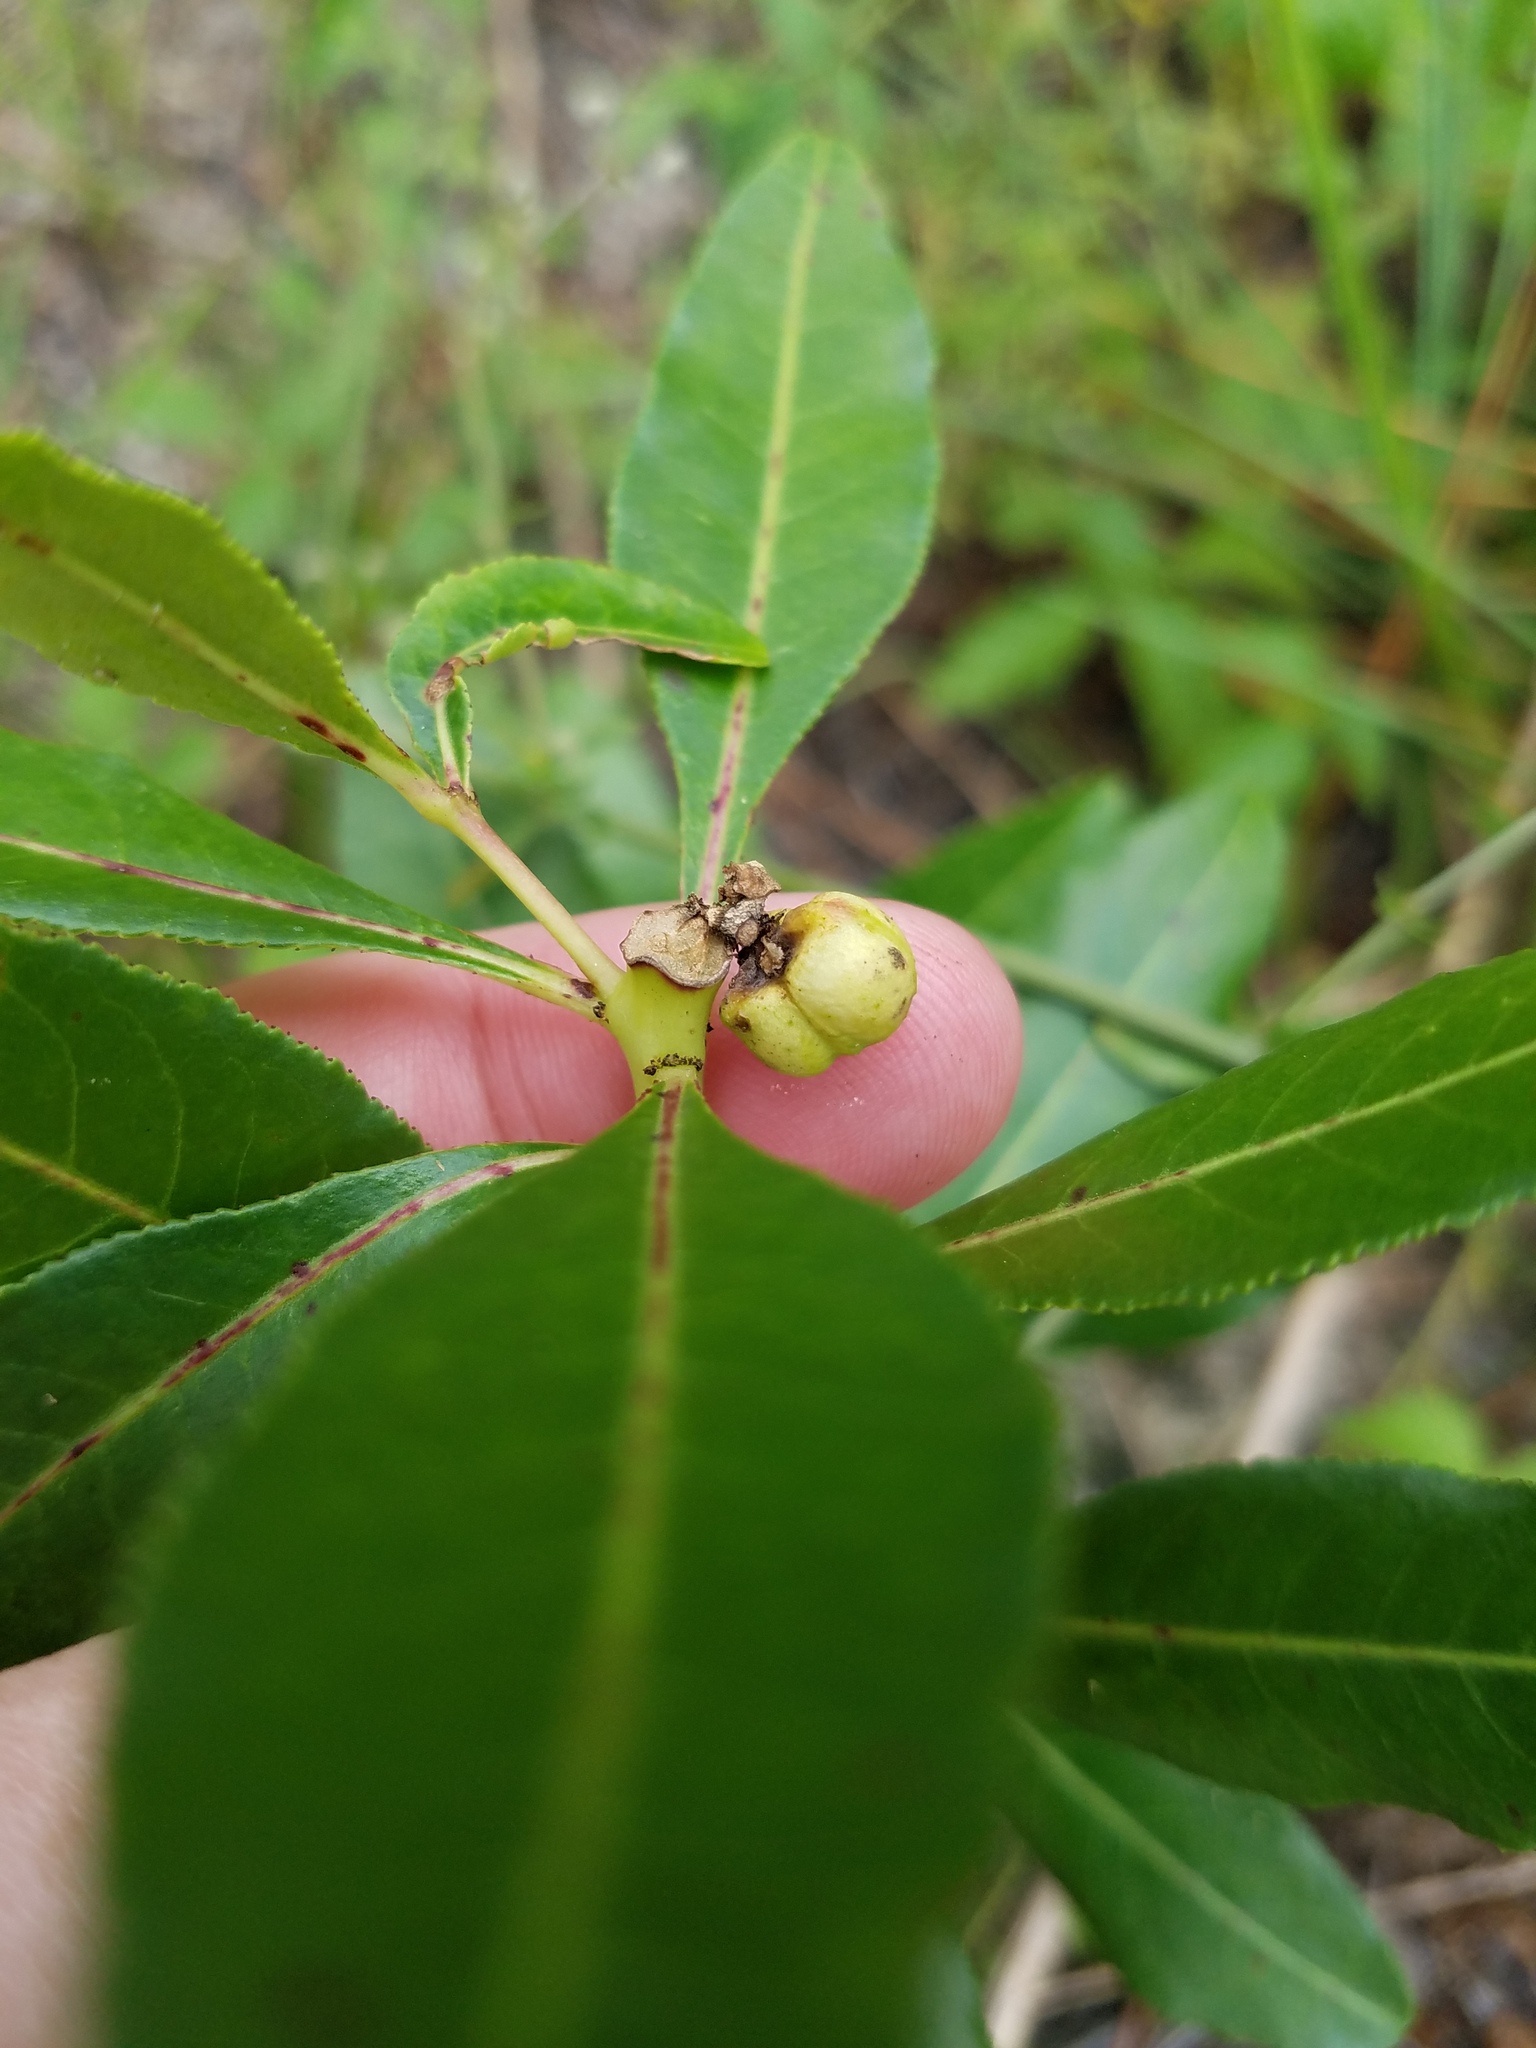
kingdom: Plantae
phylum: Tracheophyta
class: Magnoliopsida
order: Malpighiales
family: Euphorbiaceae
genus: Stillingia
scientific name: Stillingia sylvatica
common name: Queen's-delight
